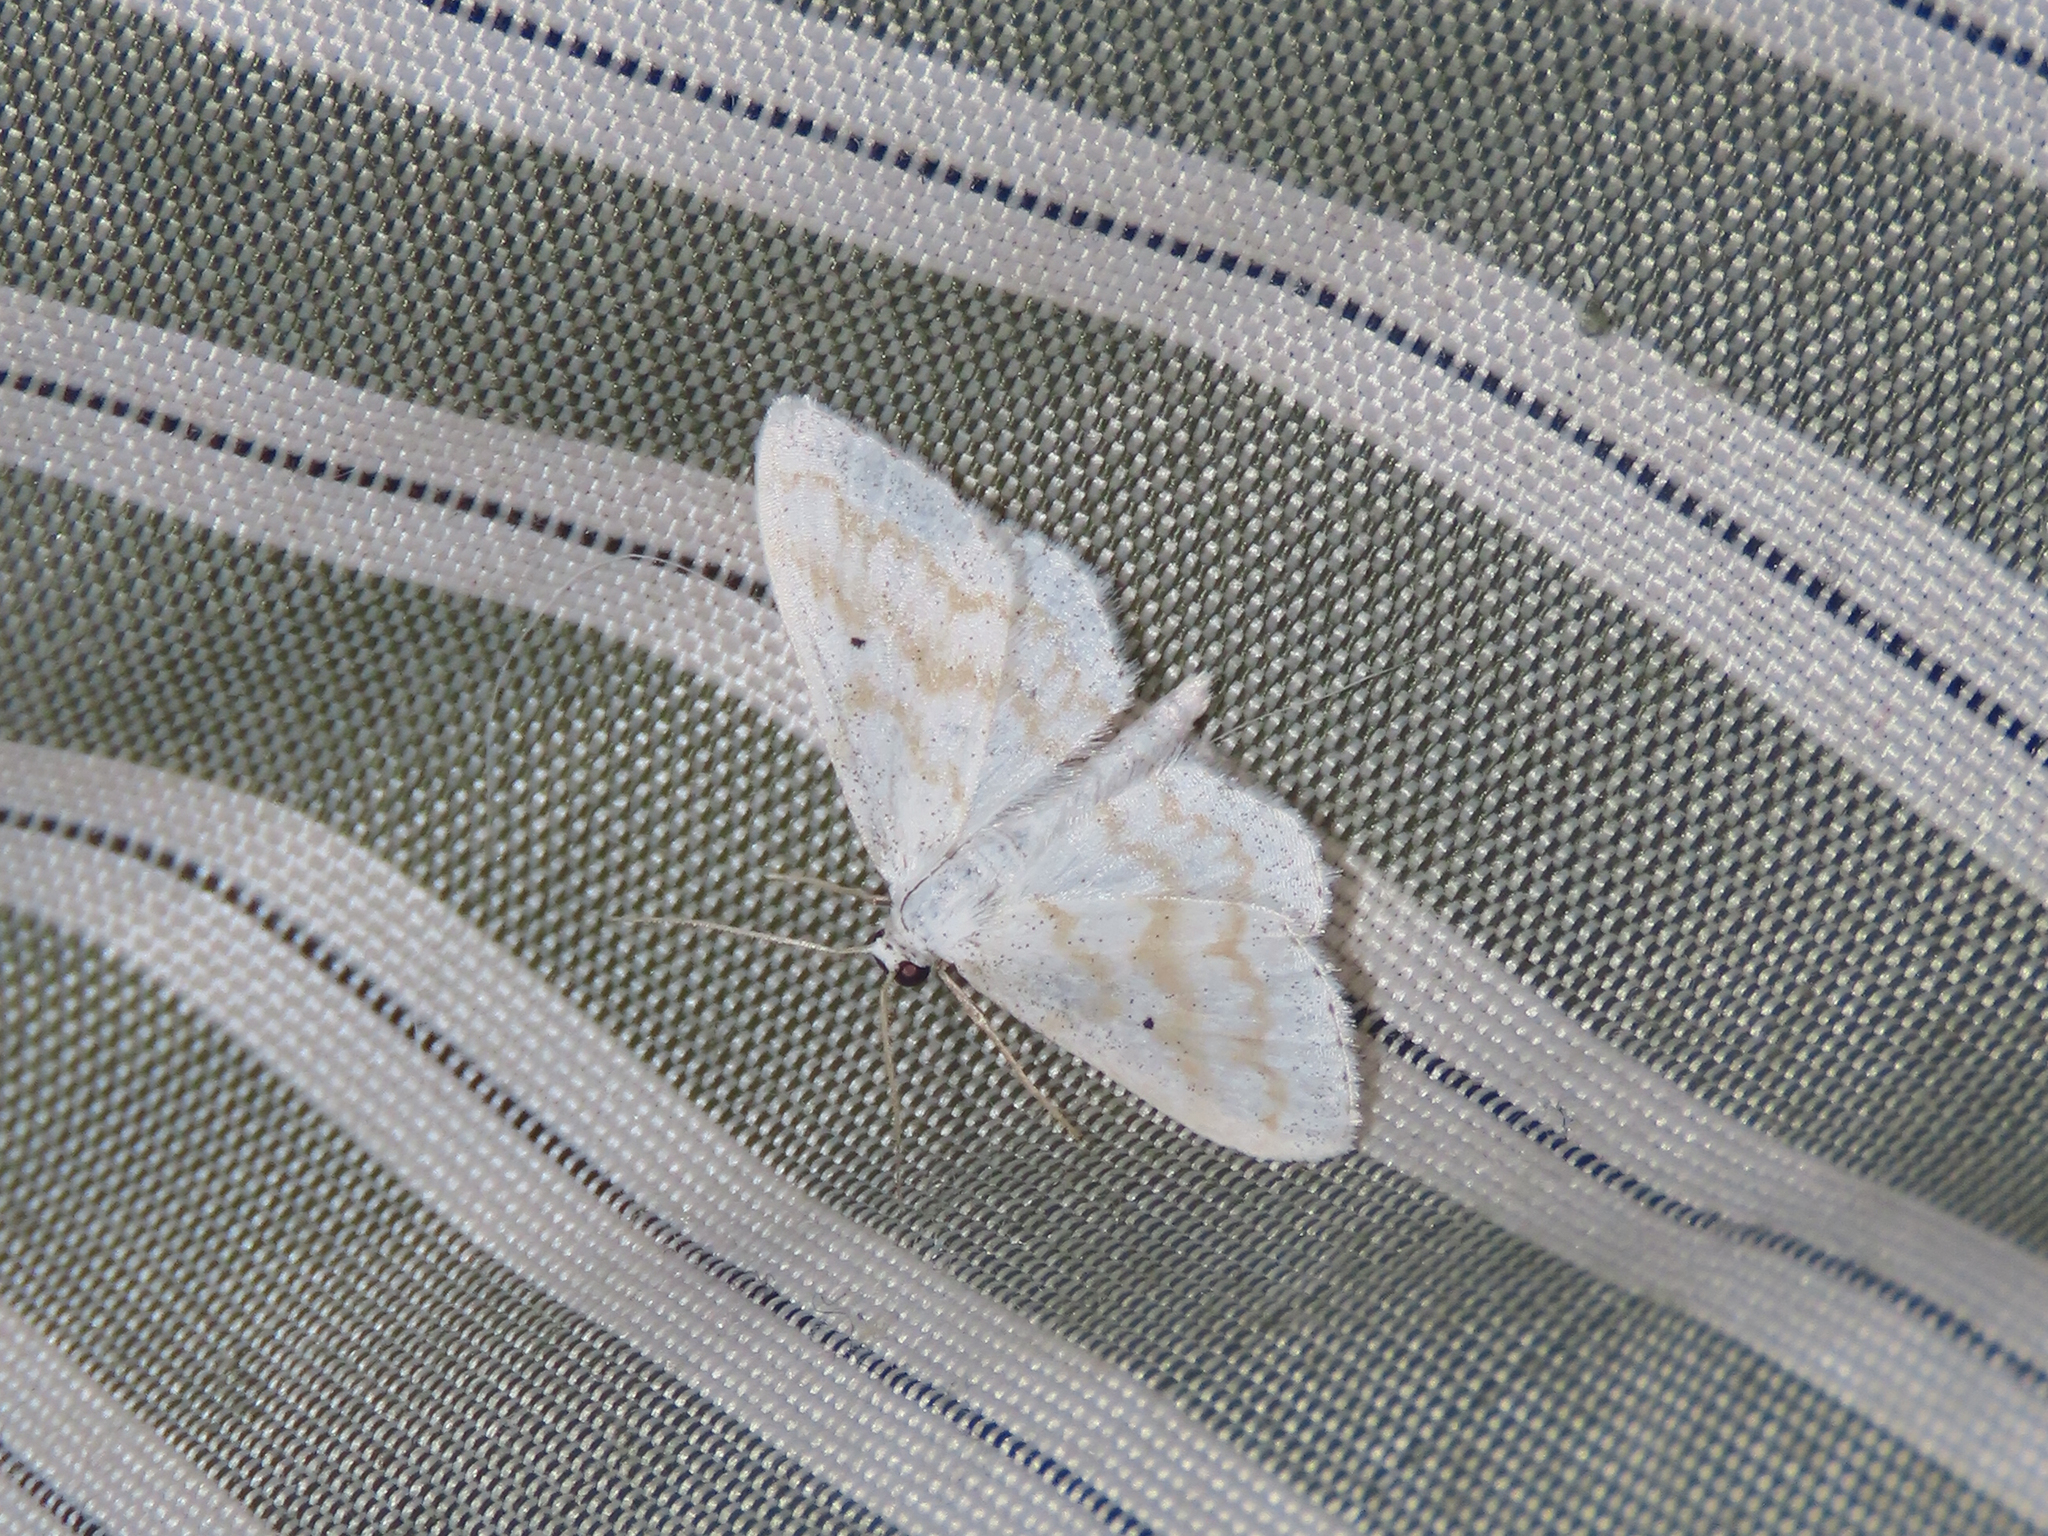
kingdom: Animalia
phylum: Arthropoda
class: Insecta
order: Lepidoptera
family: Geometridae
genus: Lobocleta
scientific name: Lobocleta peralbata
